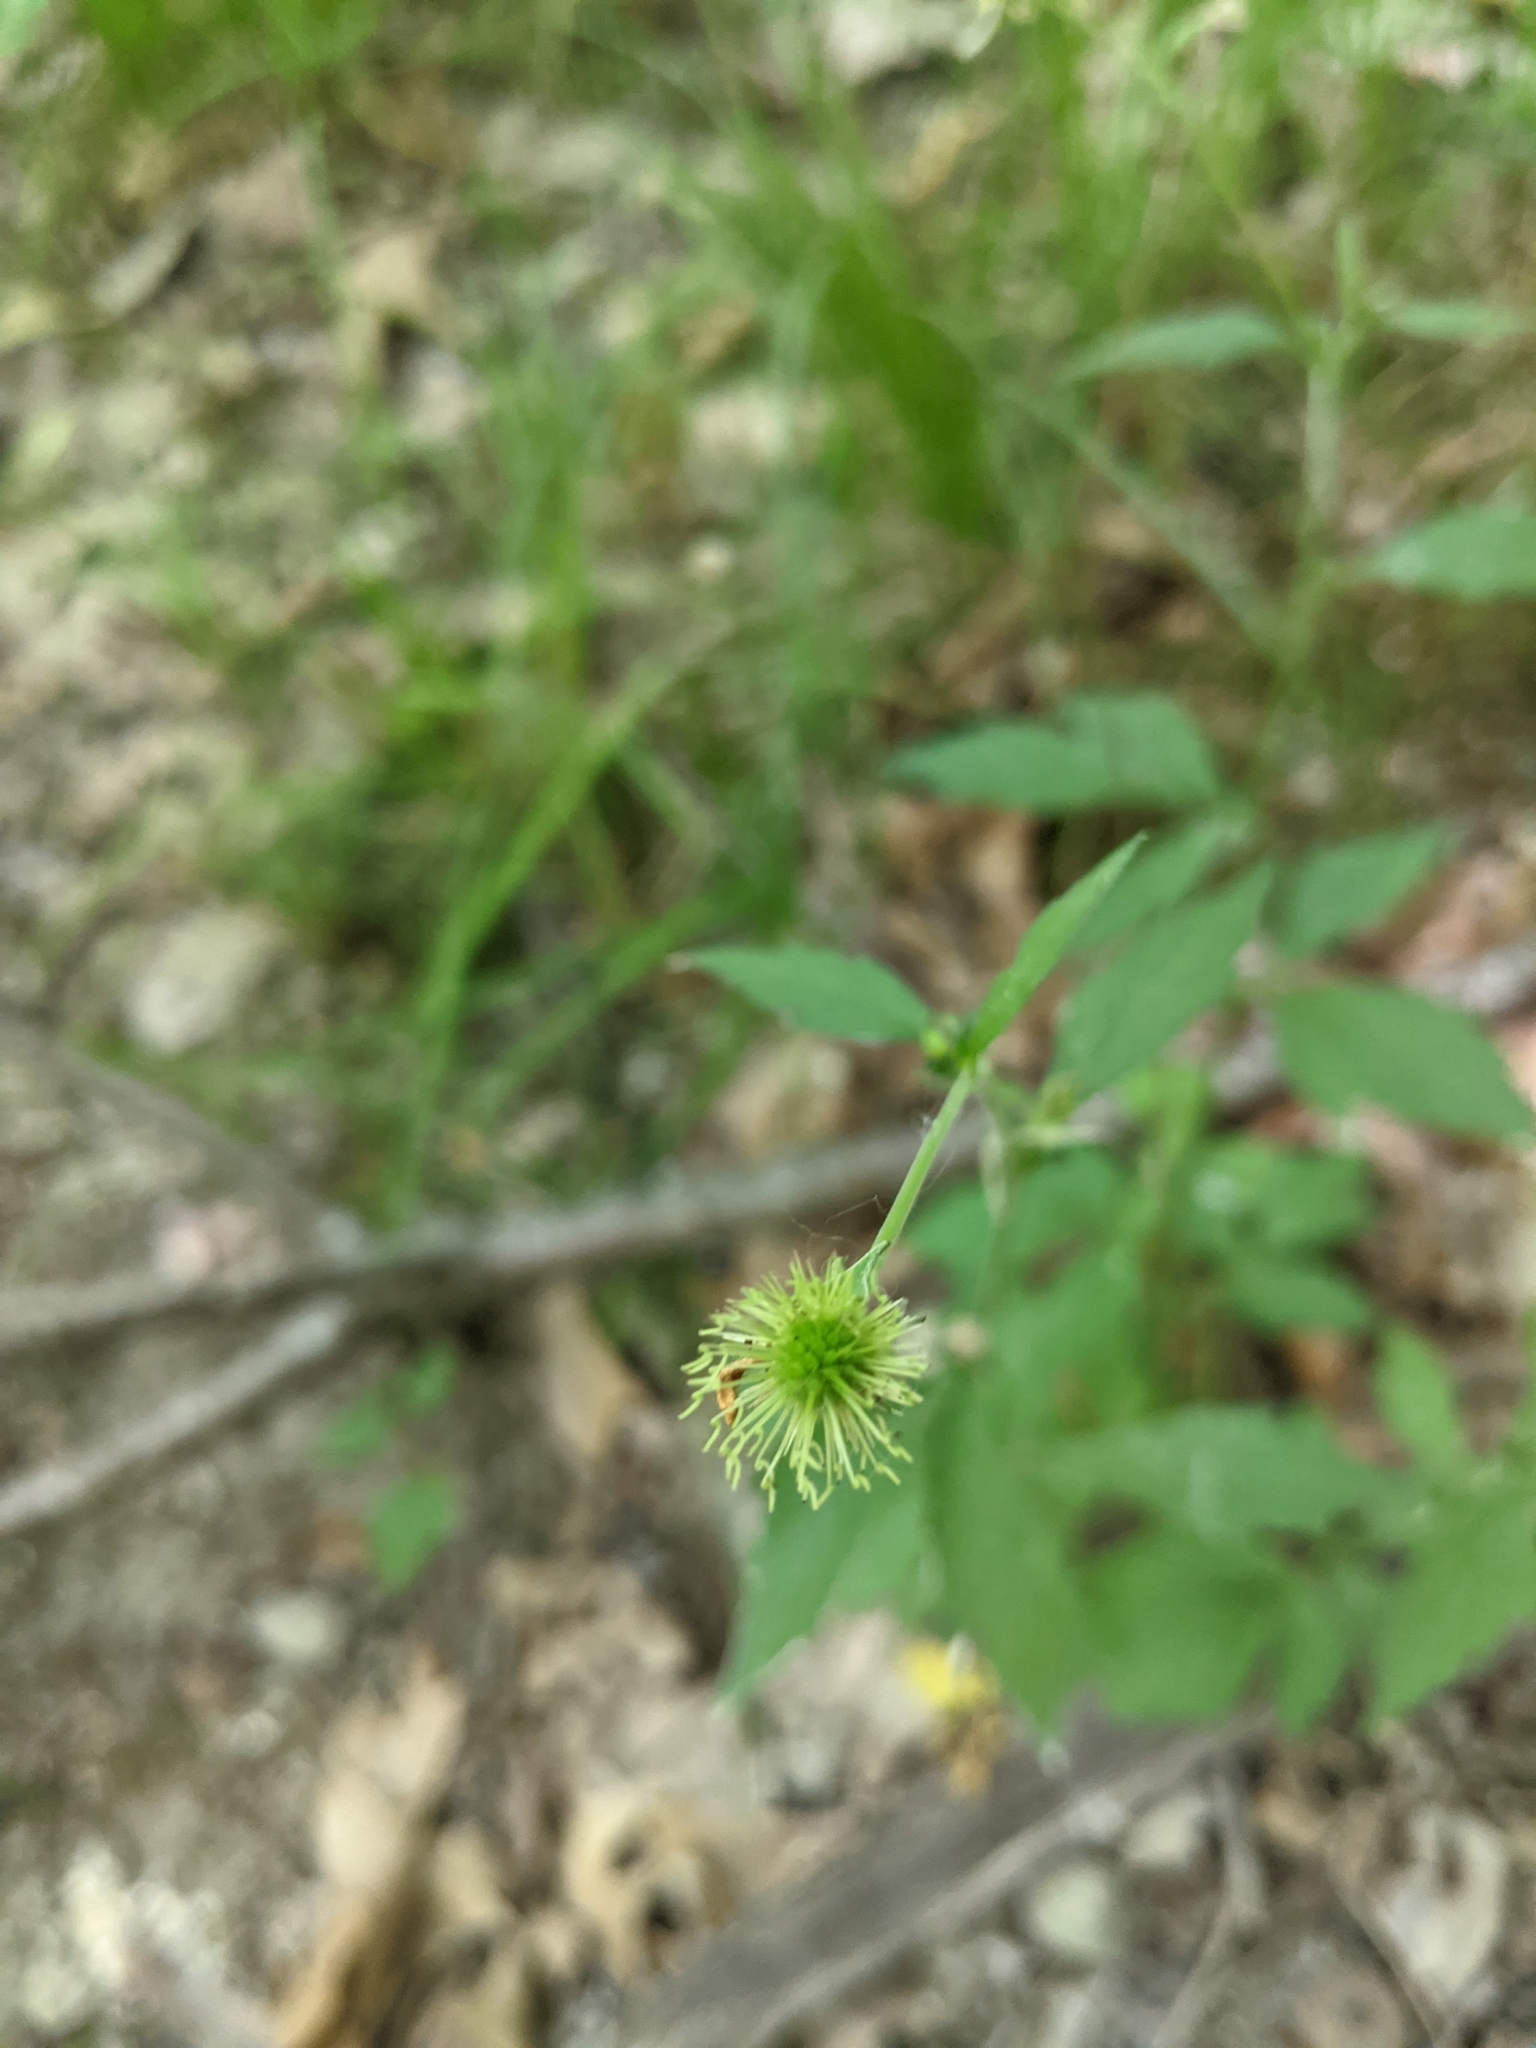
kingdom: Plantae
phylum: Tracheophyta
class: Magnoliopsida
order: Rosales
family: Rosaceae
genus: Geum
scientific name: Geum canadense
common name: White avens
